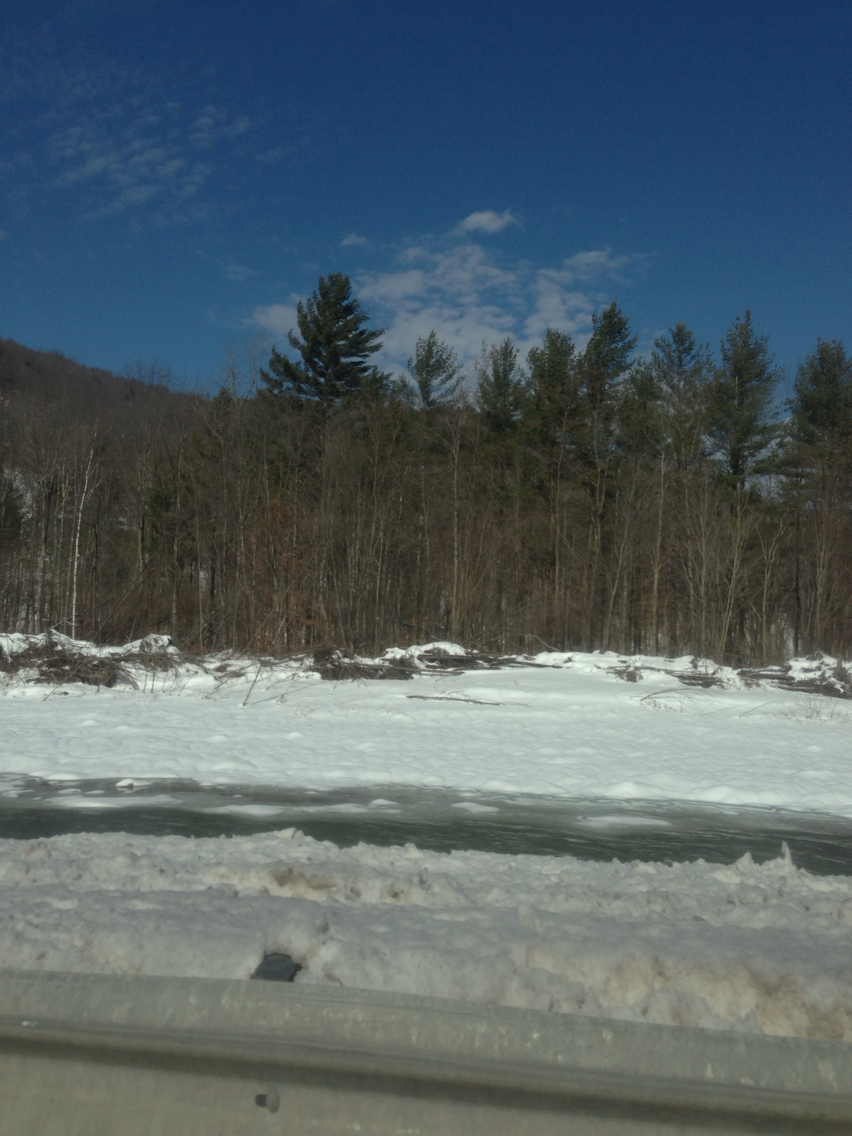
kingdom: Plantae
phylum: Tracheophyta
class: Pinopsida
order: Pinales
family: Pinaceae
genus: Pinus
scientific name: Pinus strobus
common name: Weymouth pine
